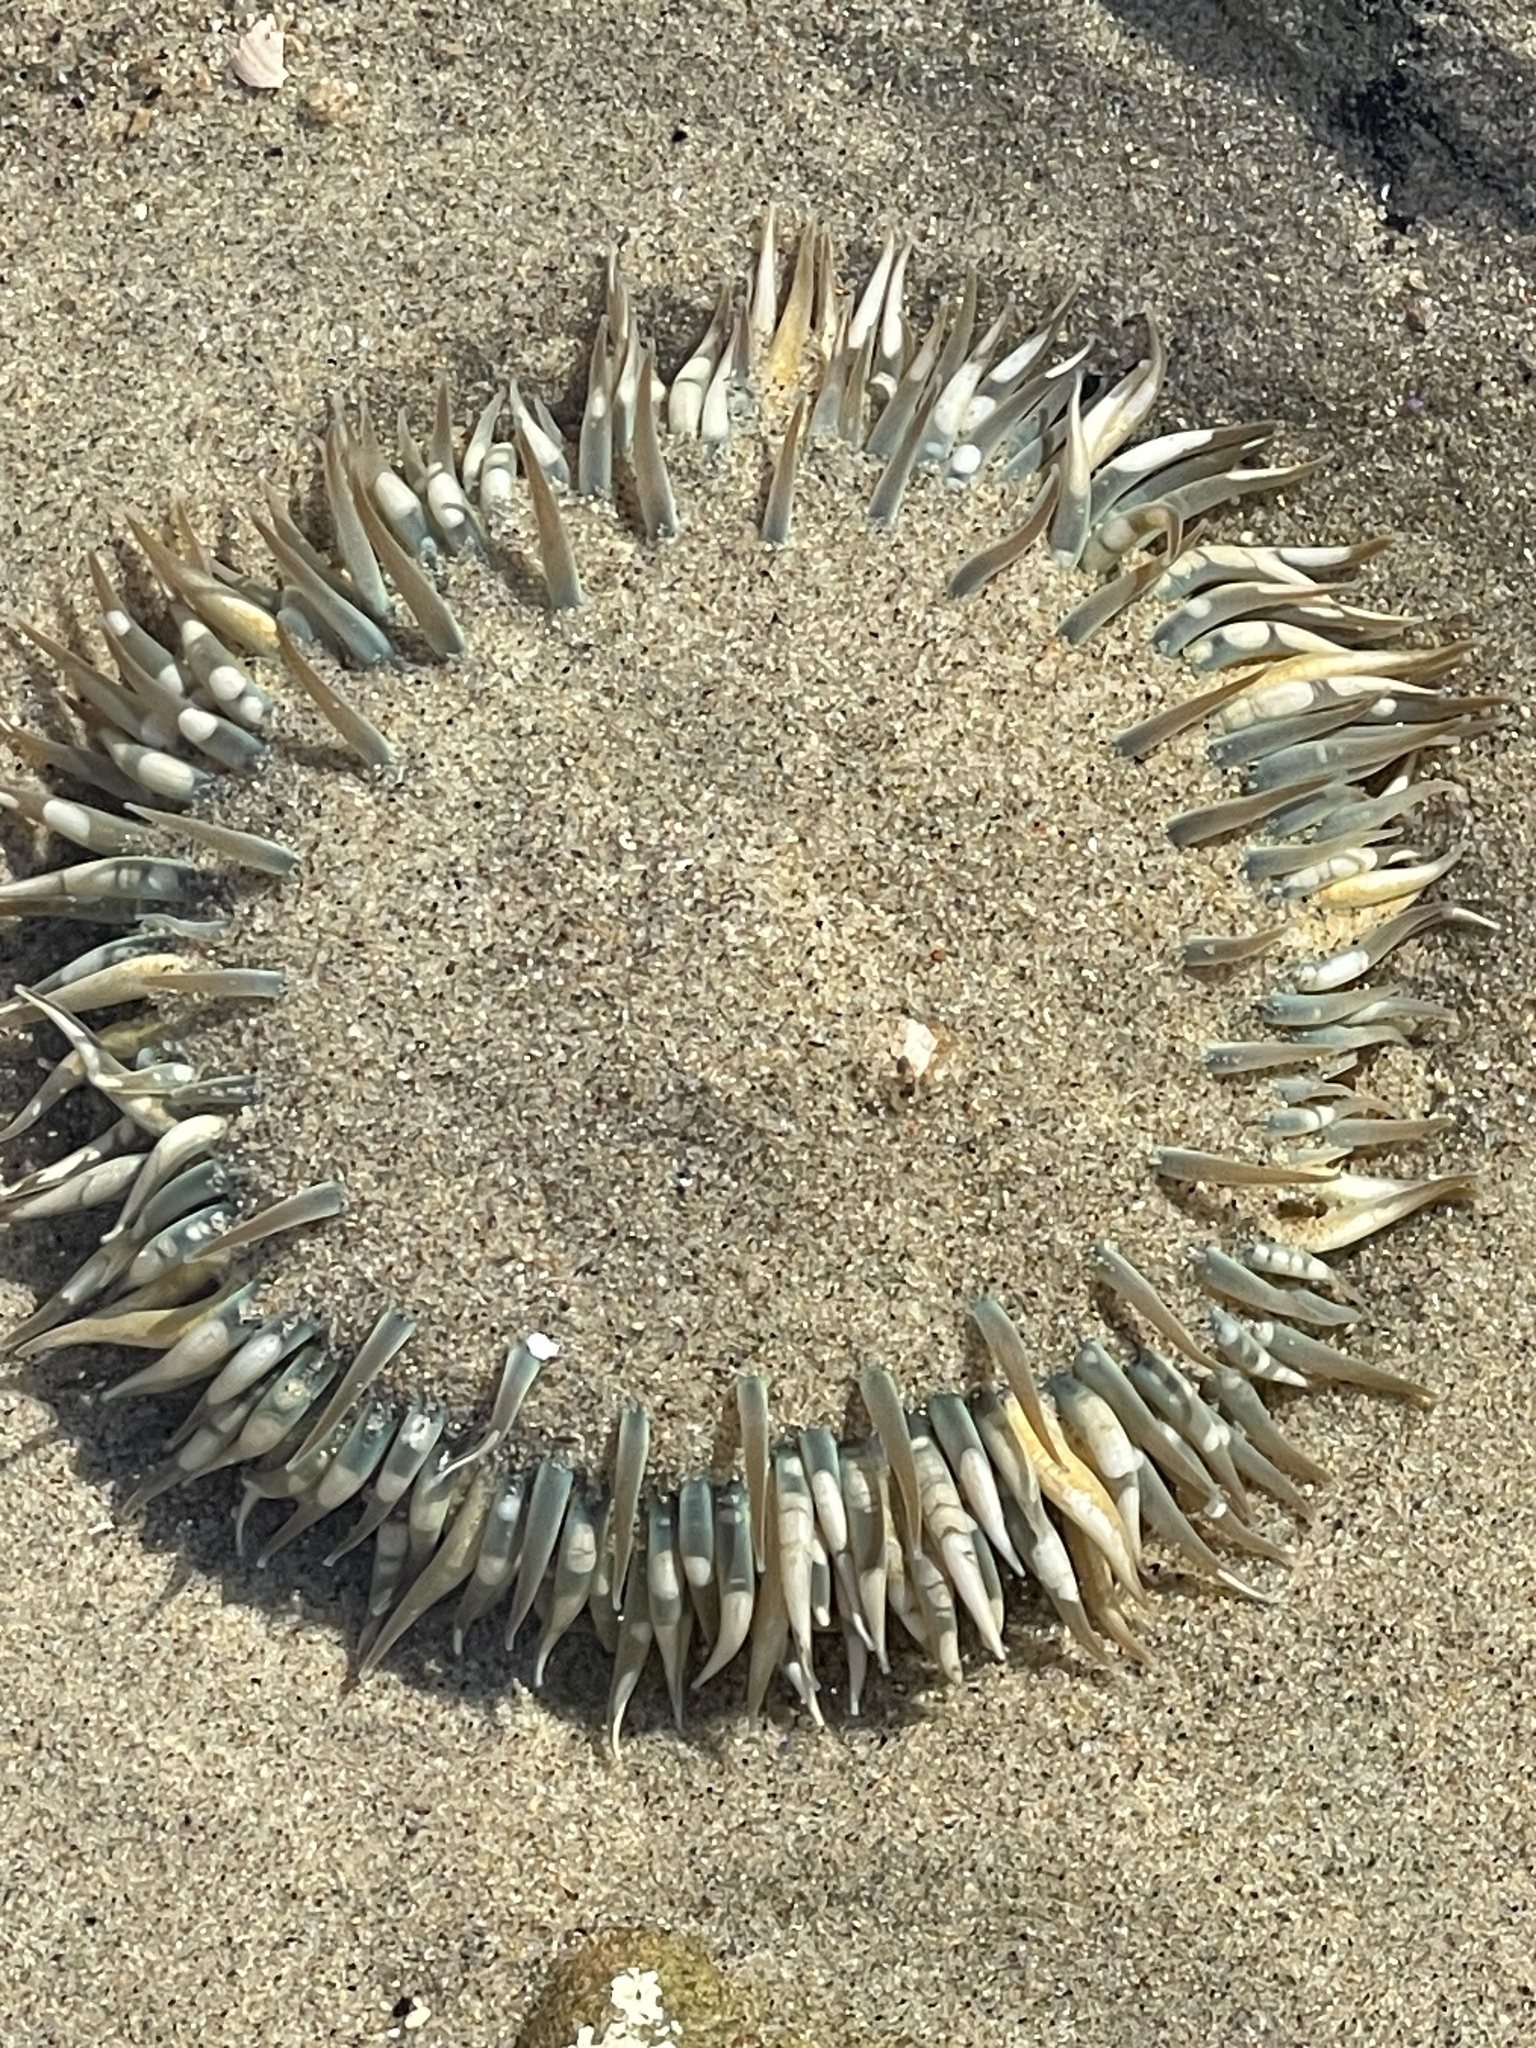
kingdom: Animalia
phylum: Cnidaria
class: Anthozoa
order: Actiniaria
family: Actiniidae
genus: Anthopleura
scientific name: Anthopleura sola
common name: Sun anemone
